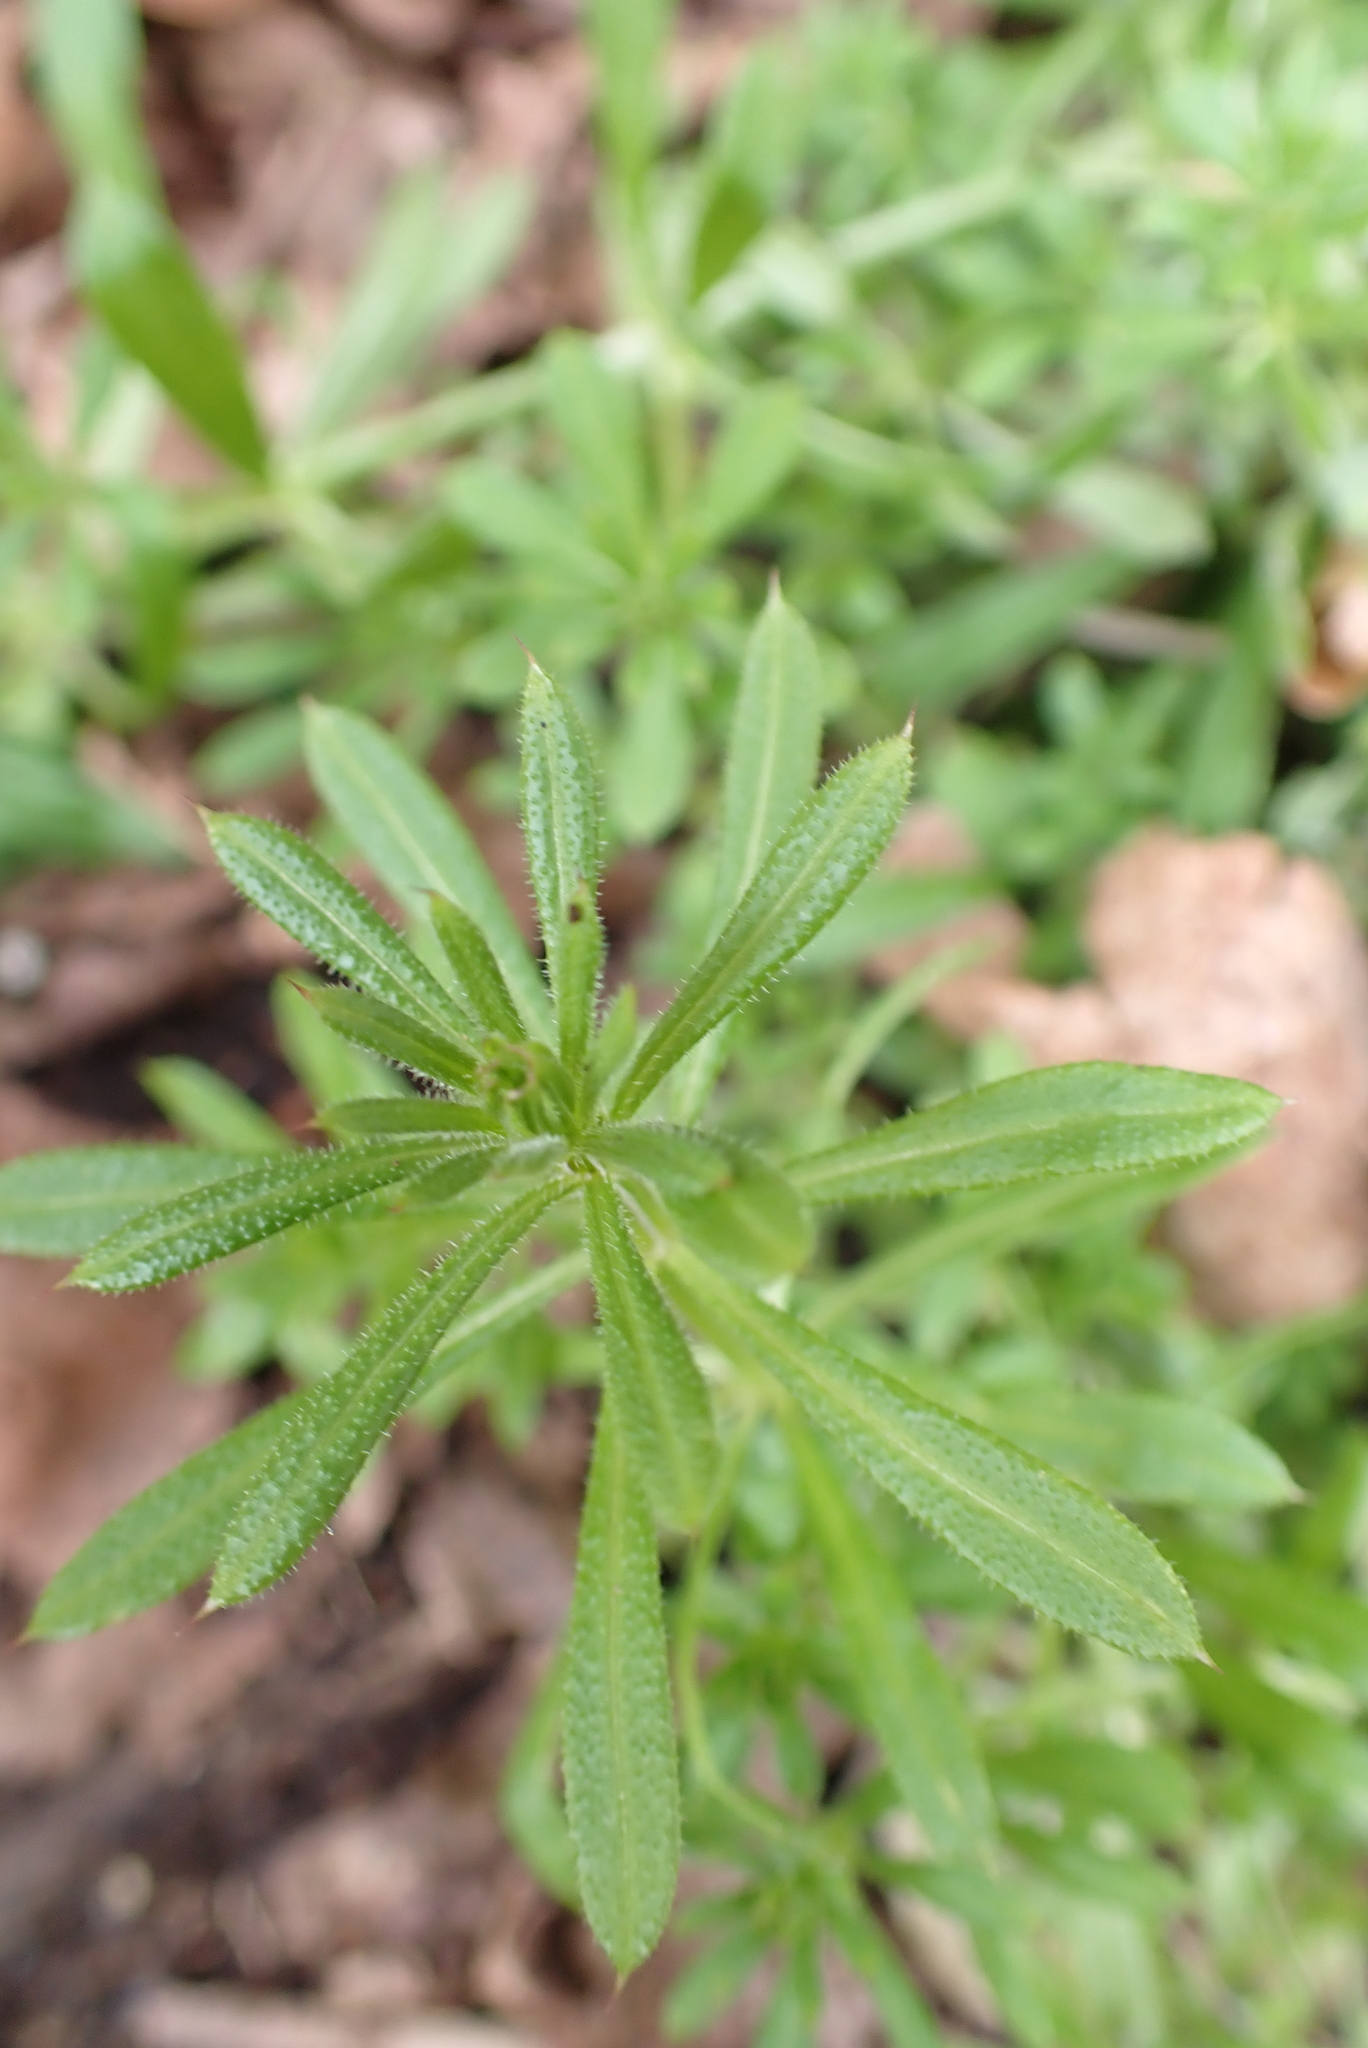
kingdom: Plantae
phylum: Tracheophyta
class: Magnoliopsida
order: Gentianales
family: Rubiaceae
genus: Galium
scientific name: Galium aparine
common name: Cleavers
